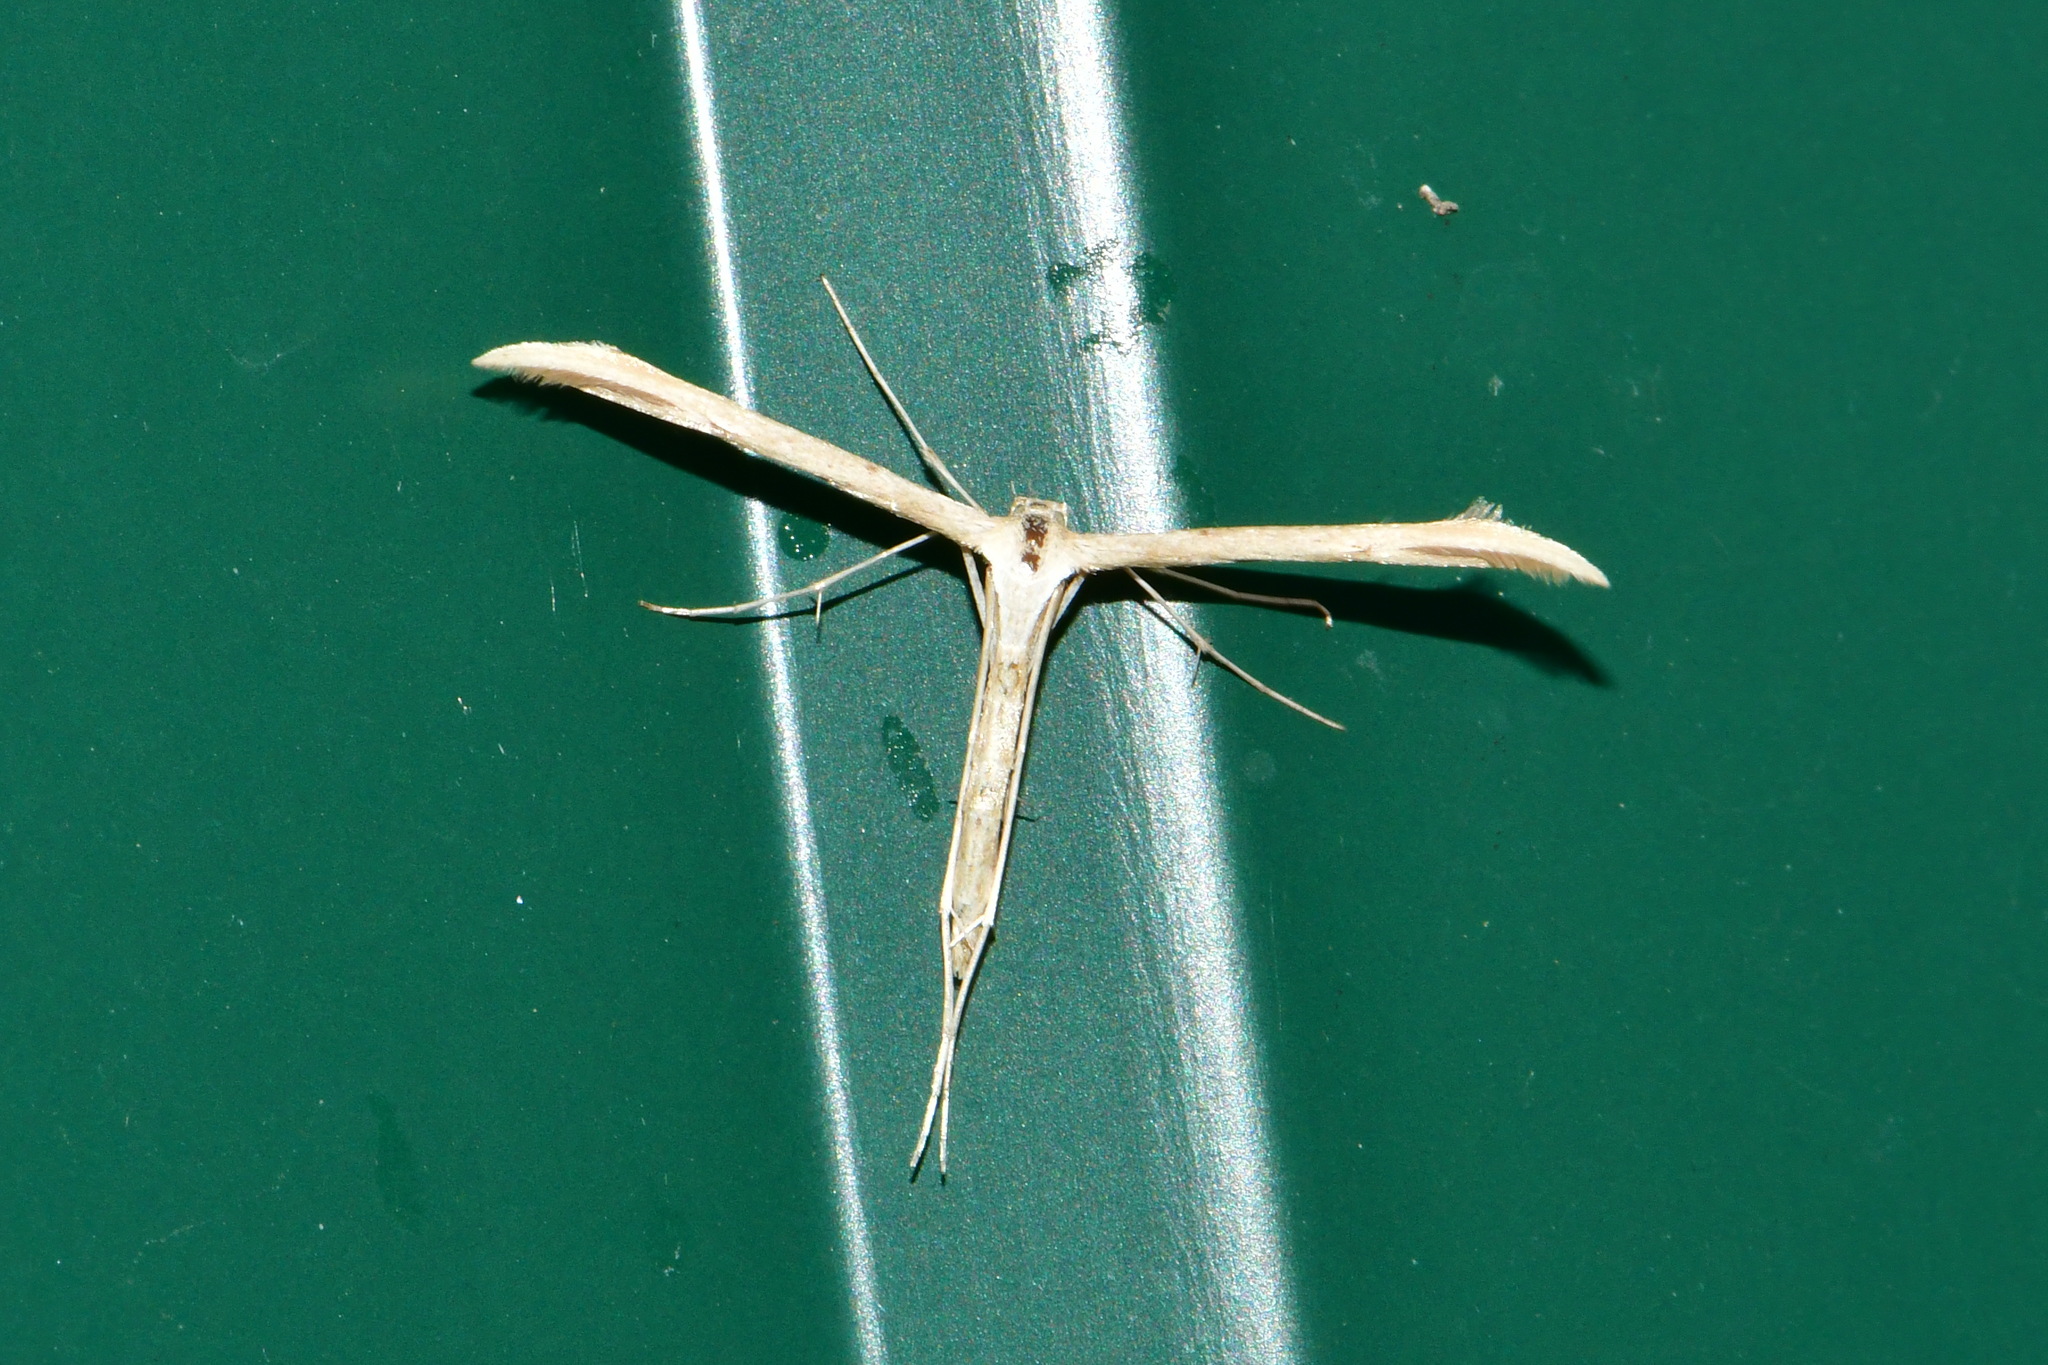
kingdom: Animalia
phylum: Arthropoda
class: Insecta
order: Lepidoptera
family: Pterophoridae
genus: Emmelina
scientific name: Emmelina monodactyla
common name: Common plume
